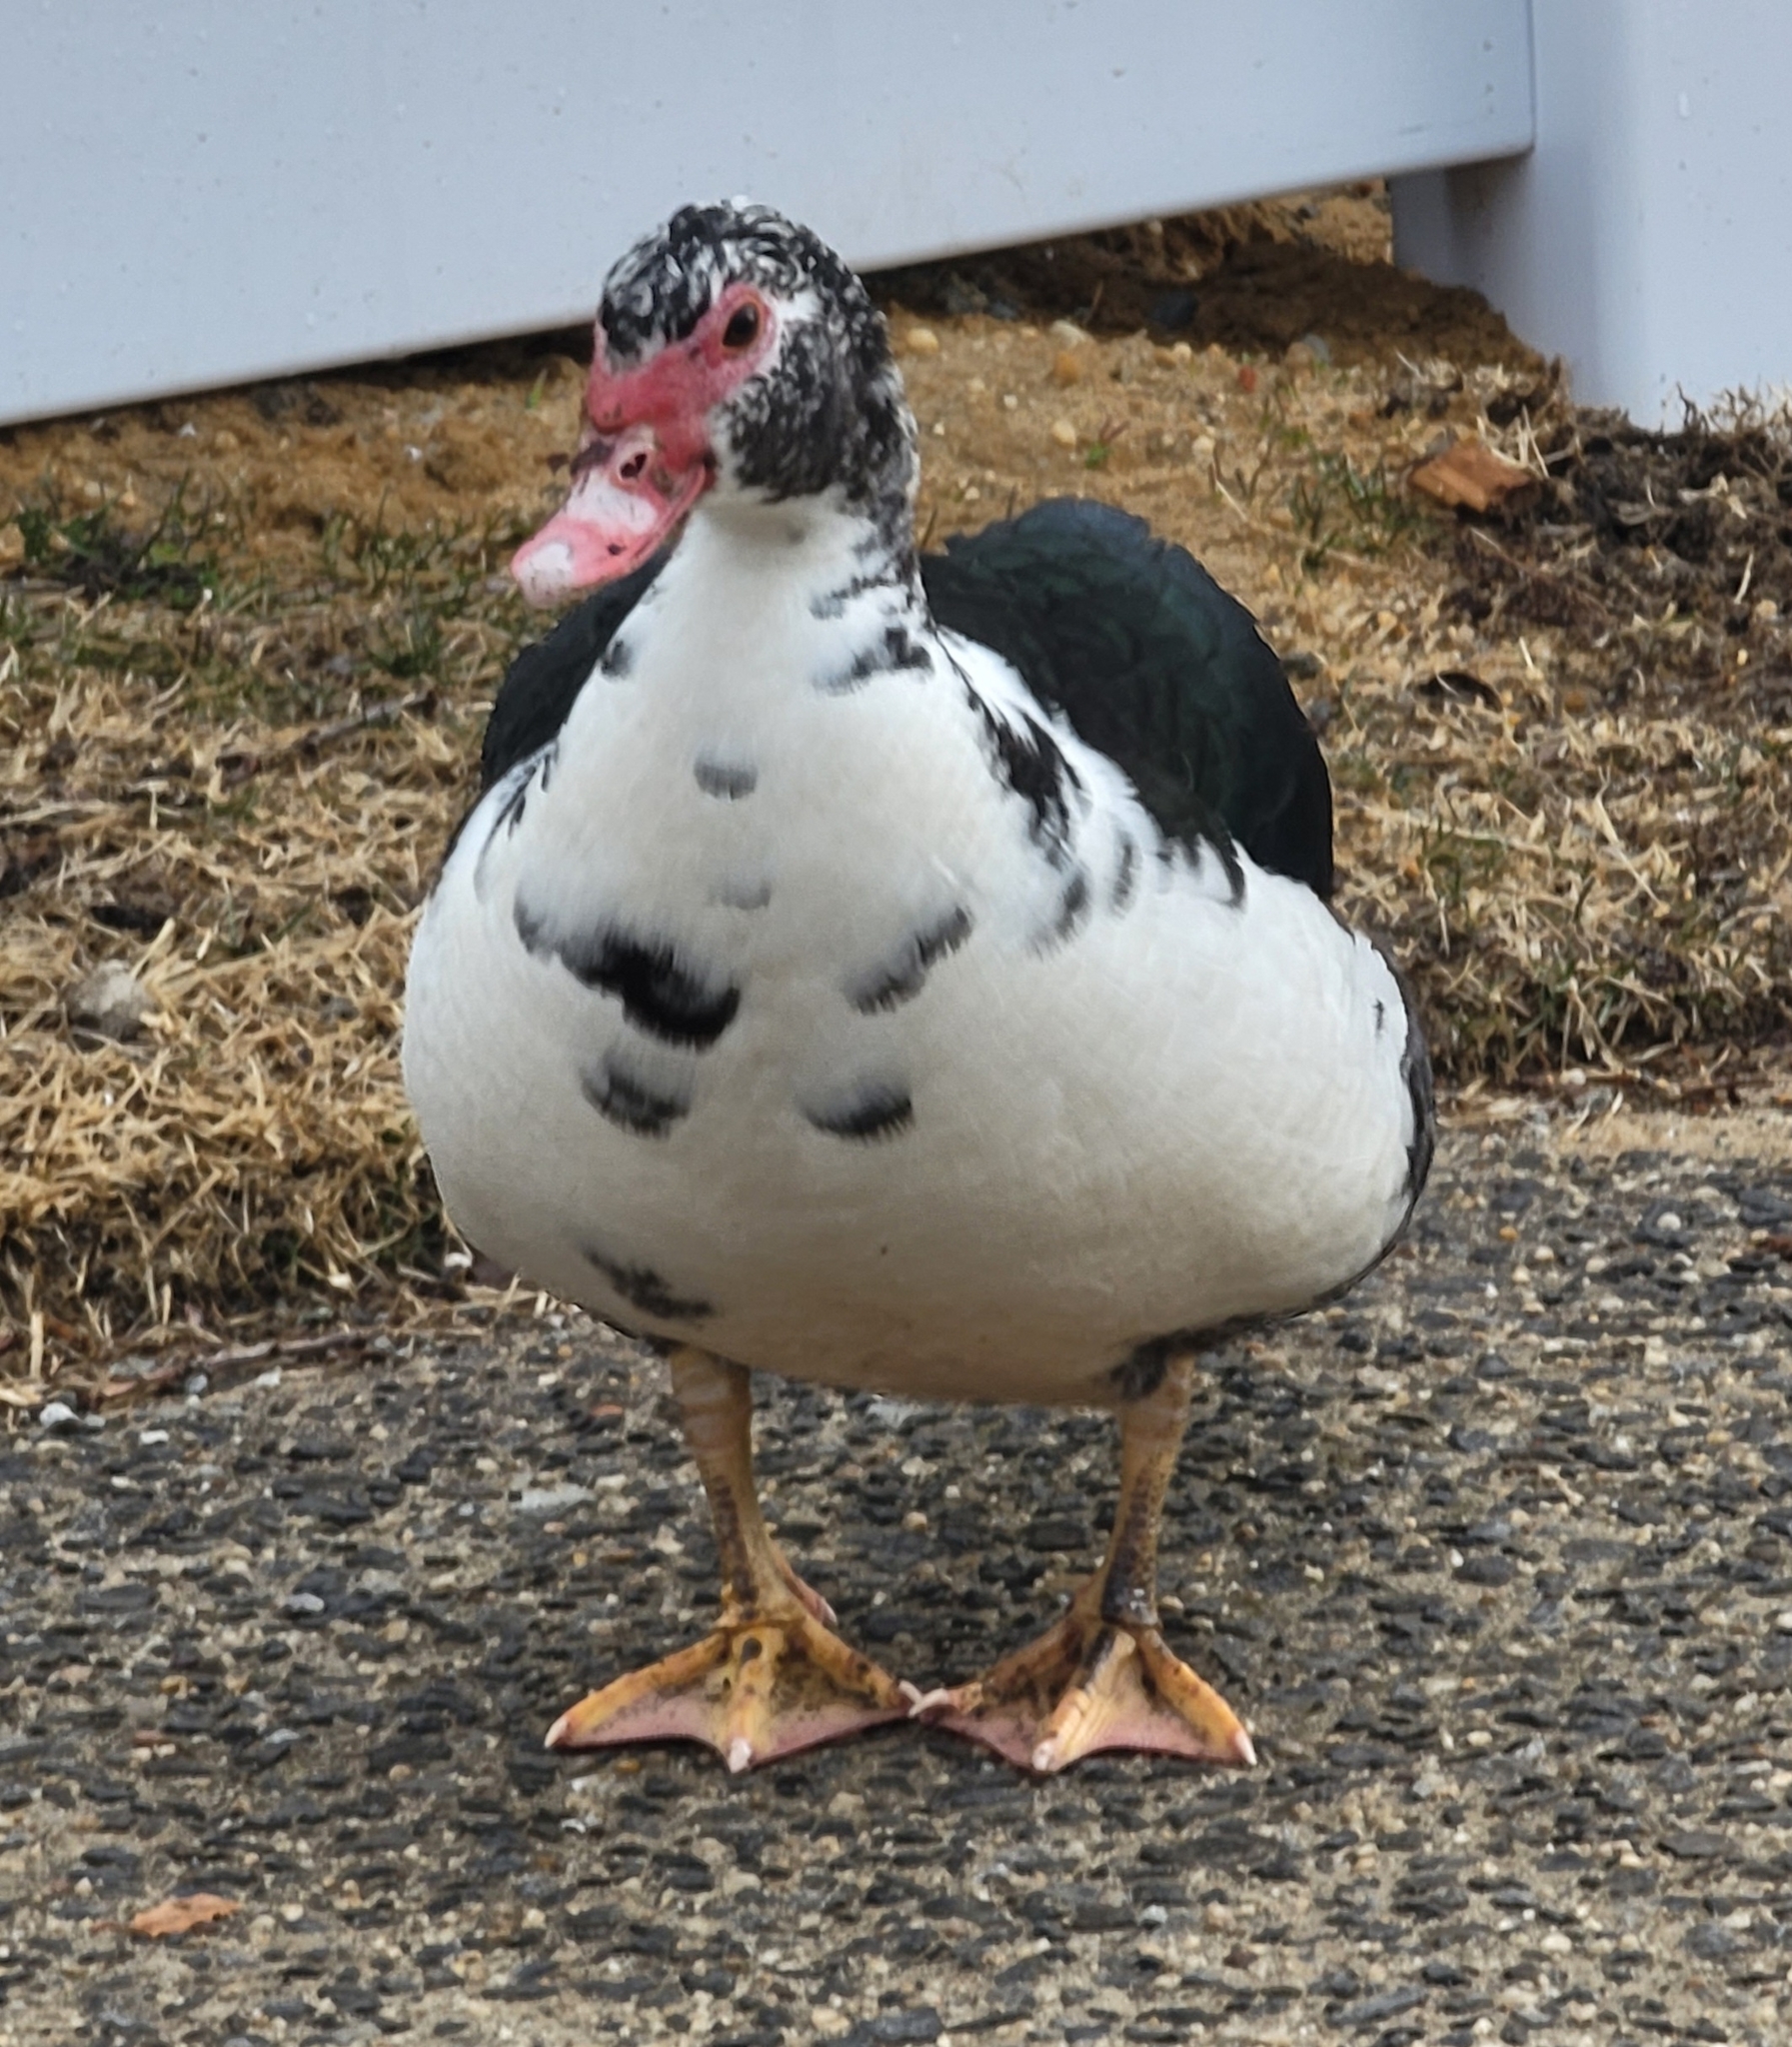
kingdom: Animalia
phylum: Chordata
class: Aves
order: Anseriformes
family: Anatidae
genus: Cairina
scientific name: Cairina moschata
